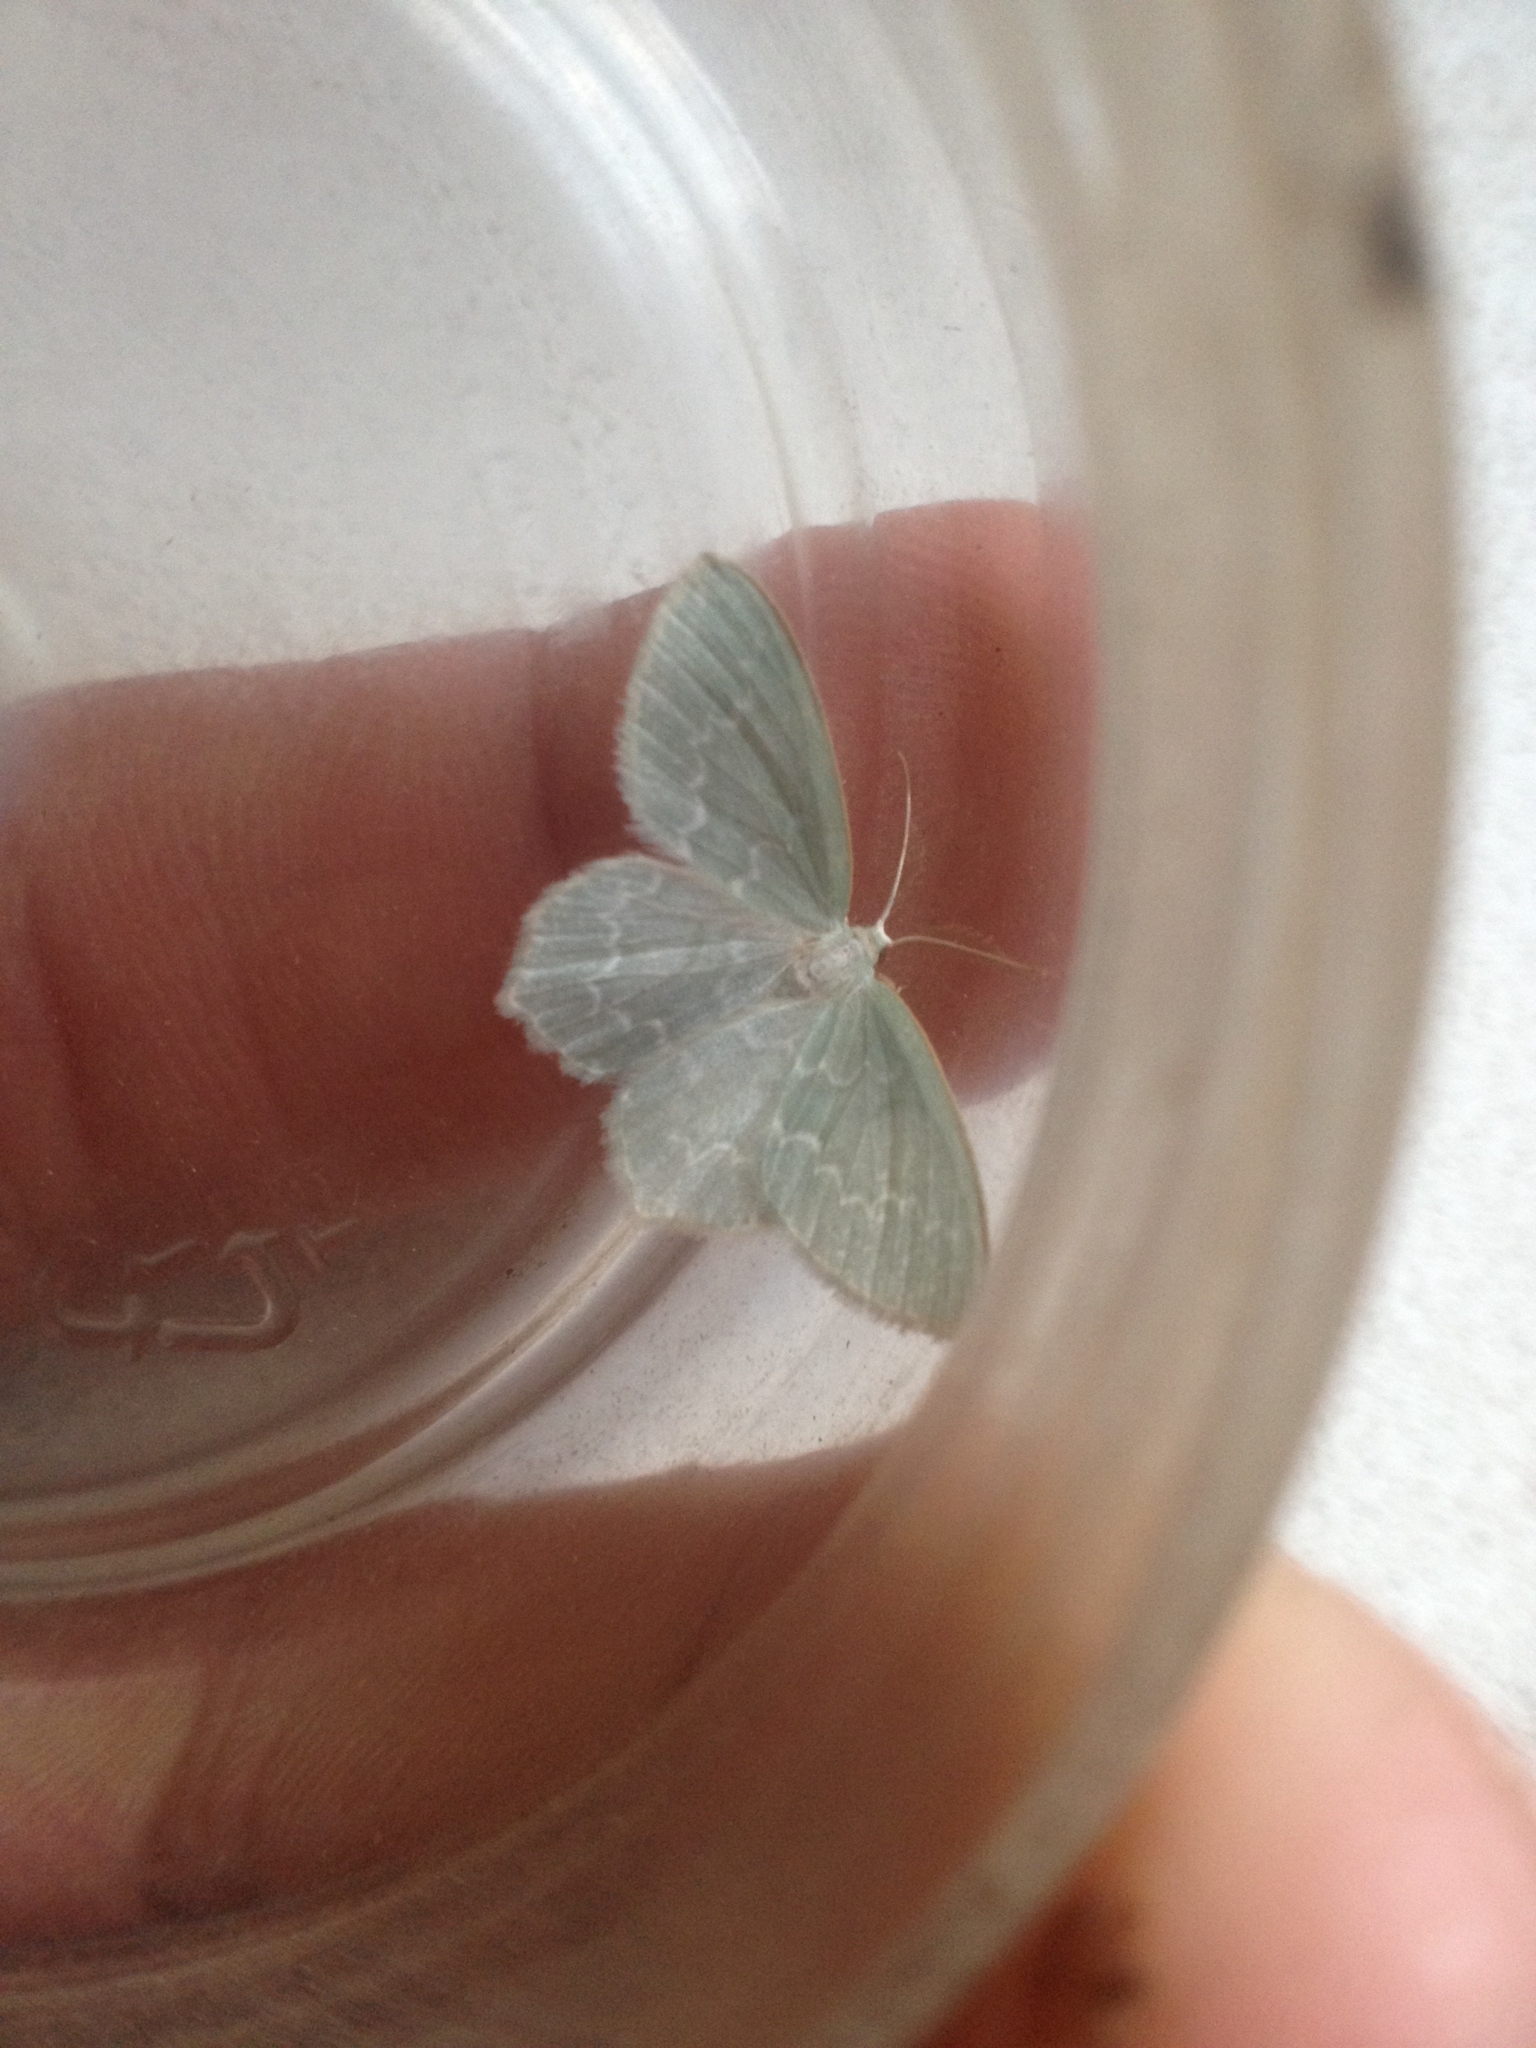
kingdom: Animalia
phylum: Arthropoda
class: Insecta
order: Lepidoptera
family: Geometridae
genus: Jodis
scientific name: Jodis putata
